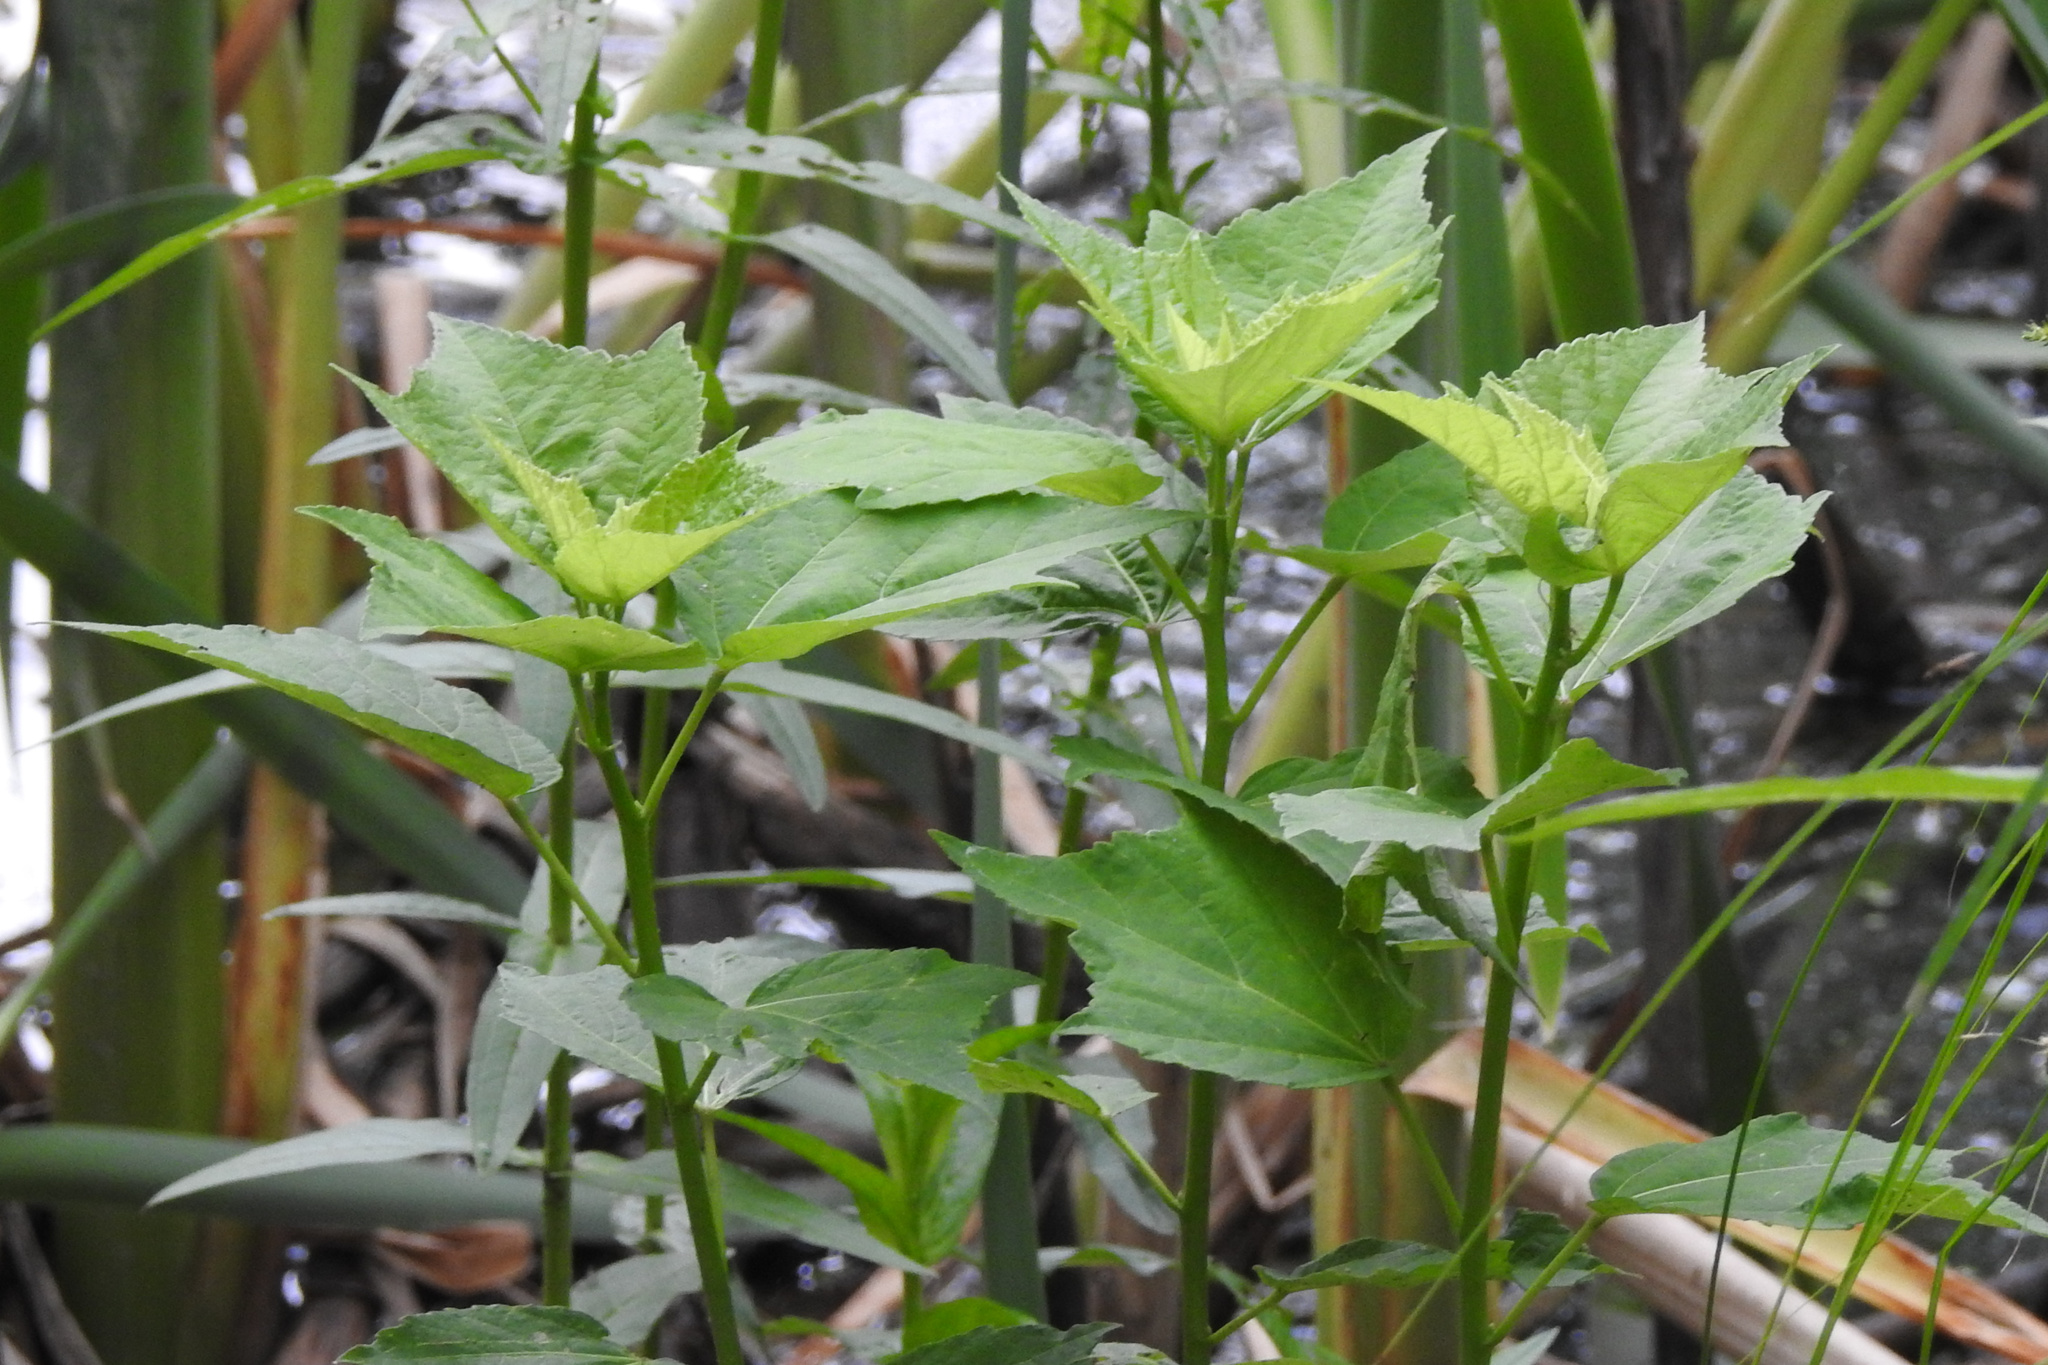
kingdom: Plantae
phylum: Tracheophyta
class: Magnoliopsida
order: Malvales
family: Malvaceae
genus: Hibiscus
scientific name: Hibiscus moscheutos
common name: Common rose-mallow
